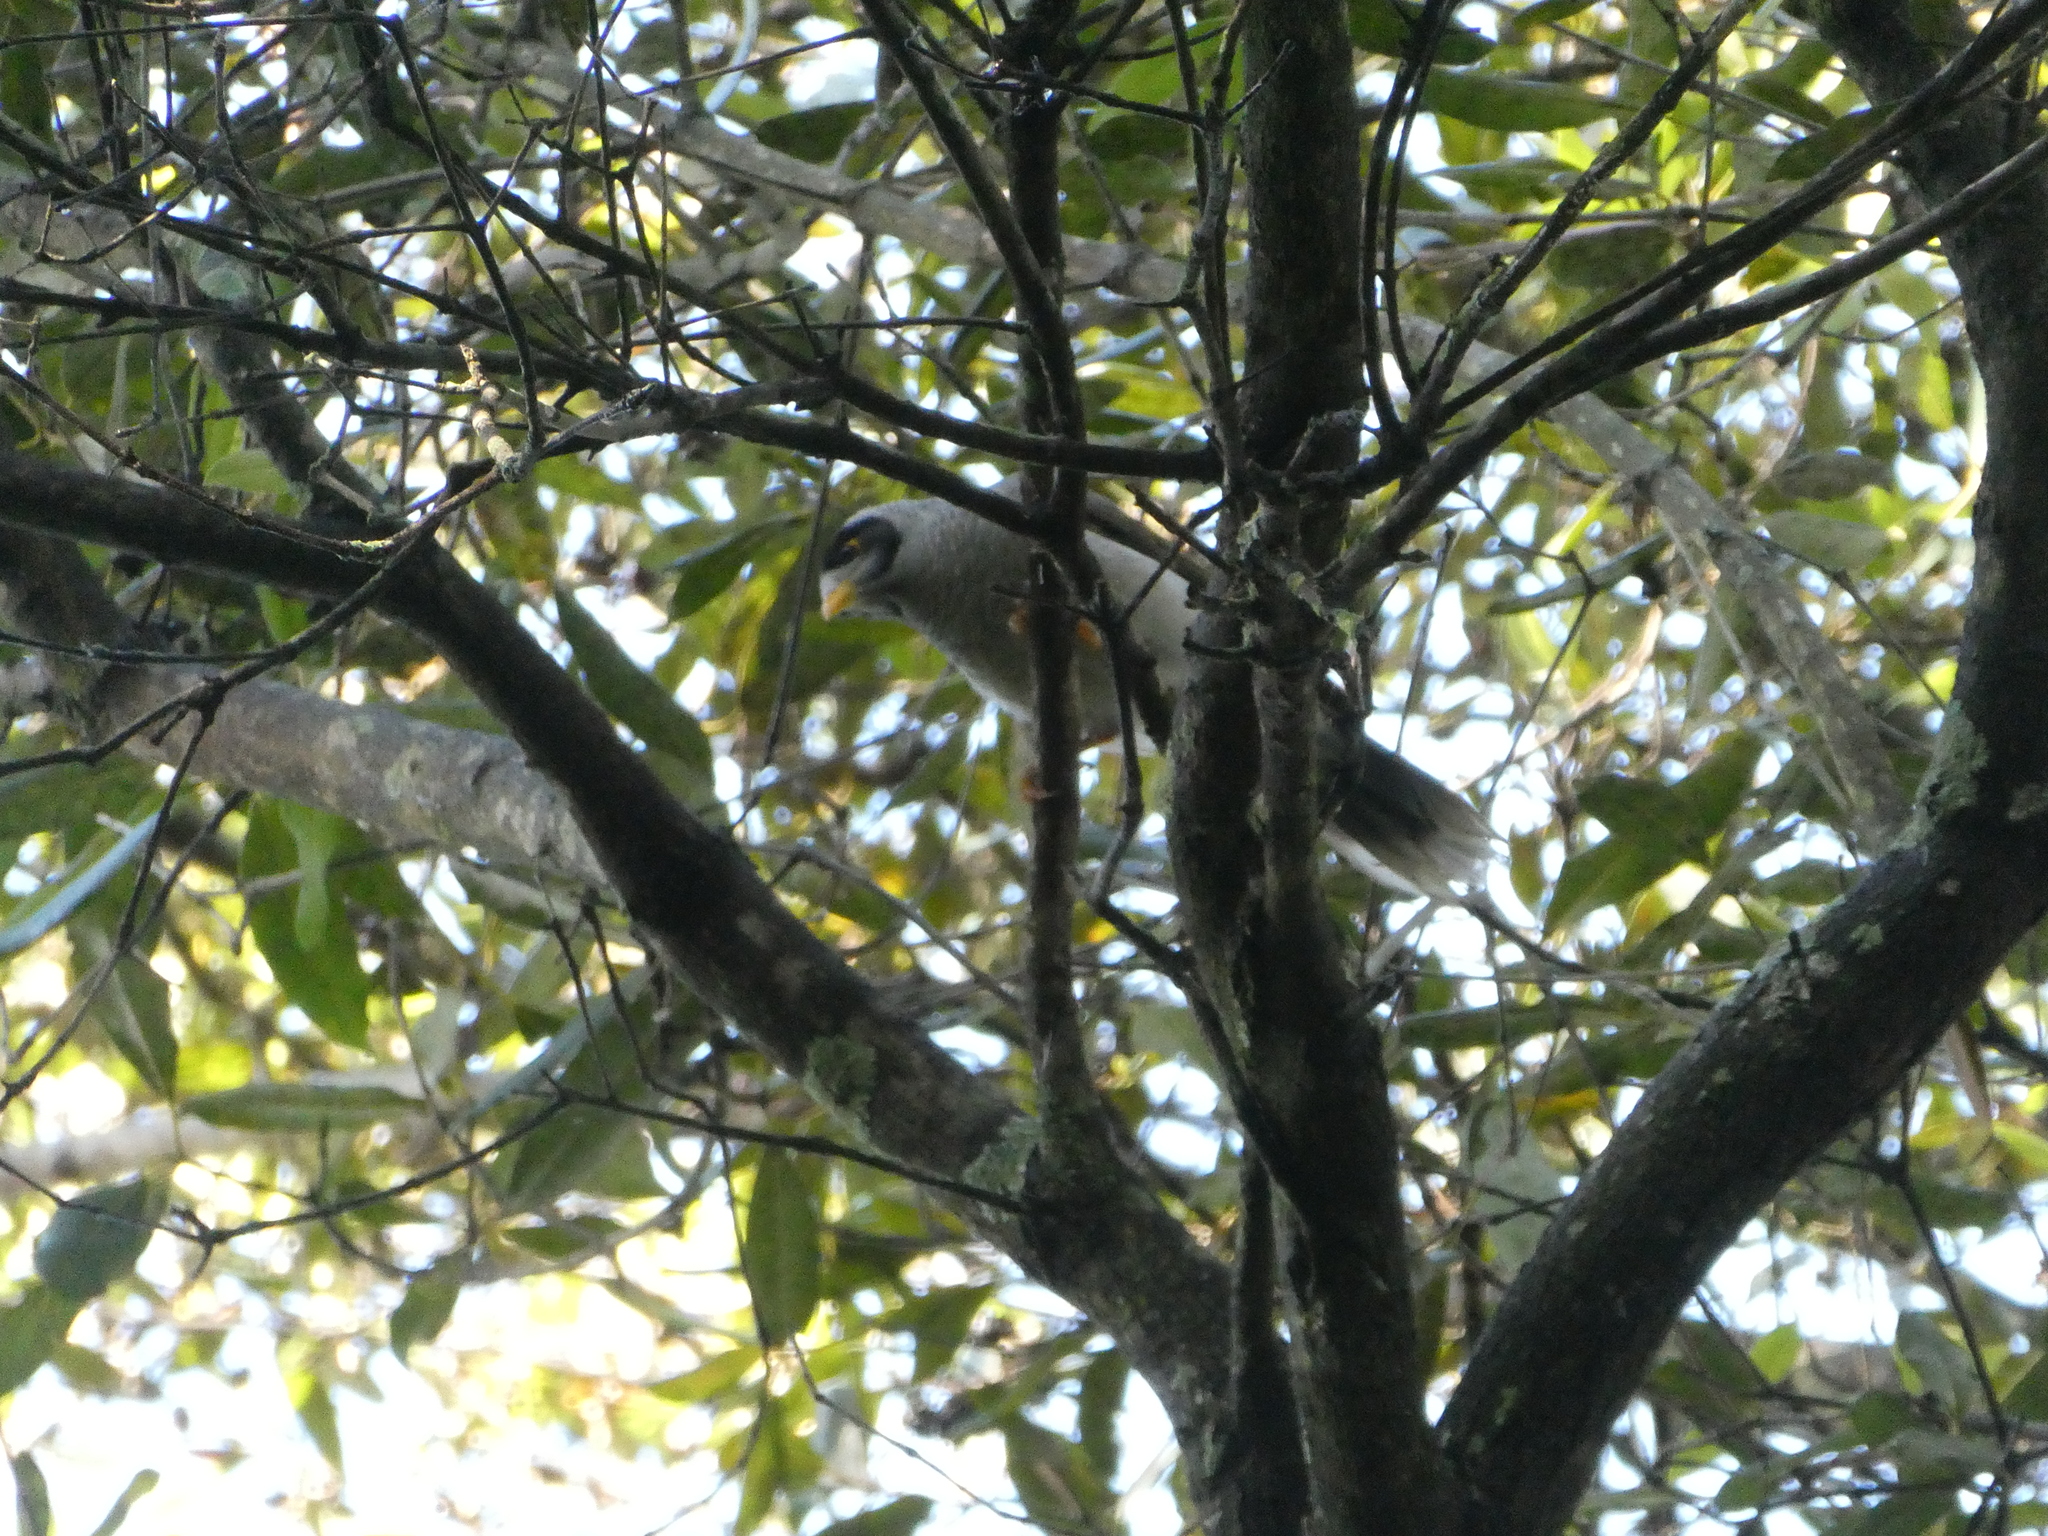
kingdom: Animalia
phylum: Chordata
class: Aves
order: Passeriformes
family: Meliphagidae
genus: Manorina
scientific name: Manorina melanocephala
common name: Noisy miner
